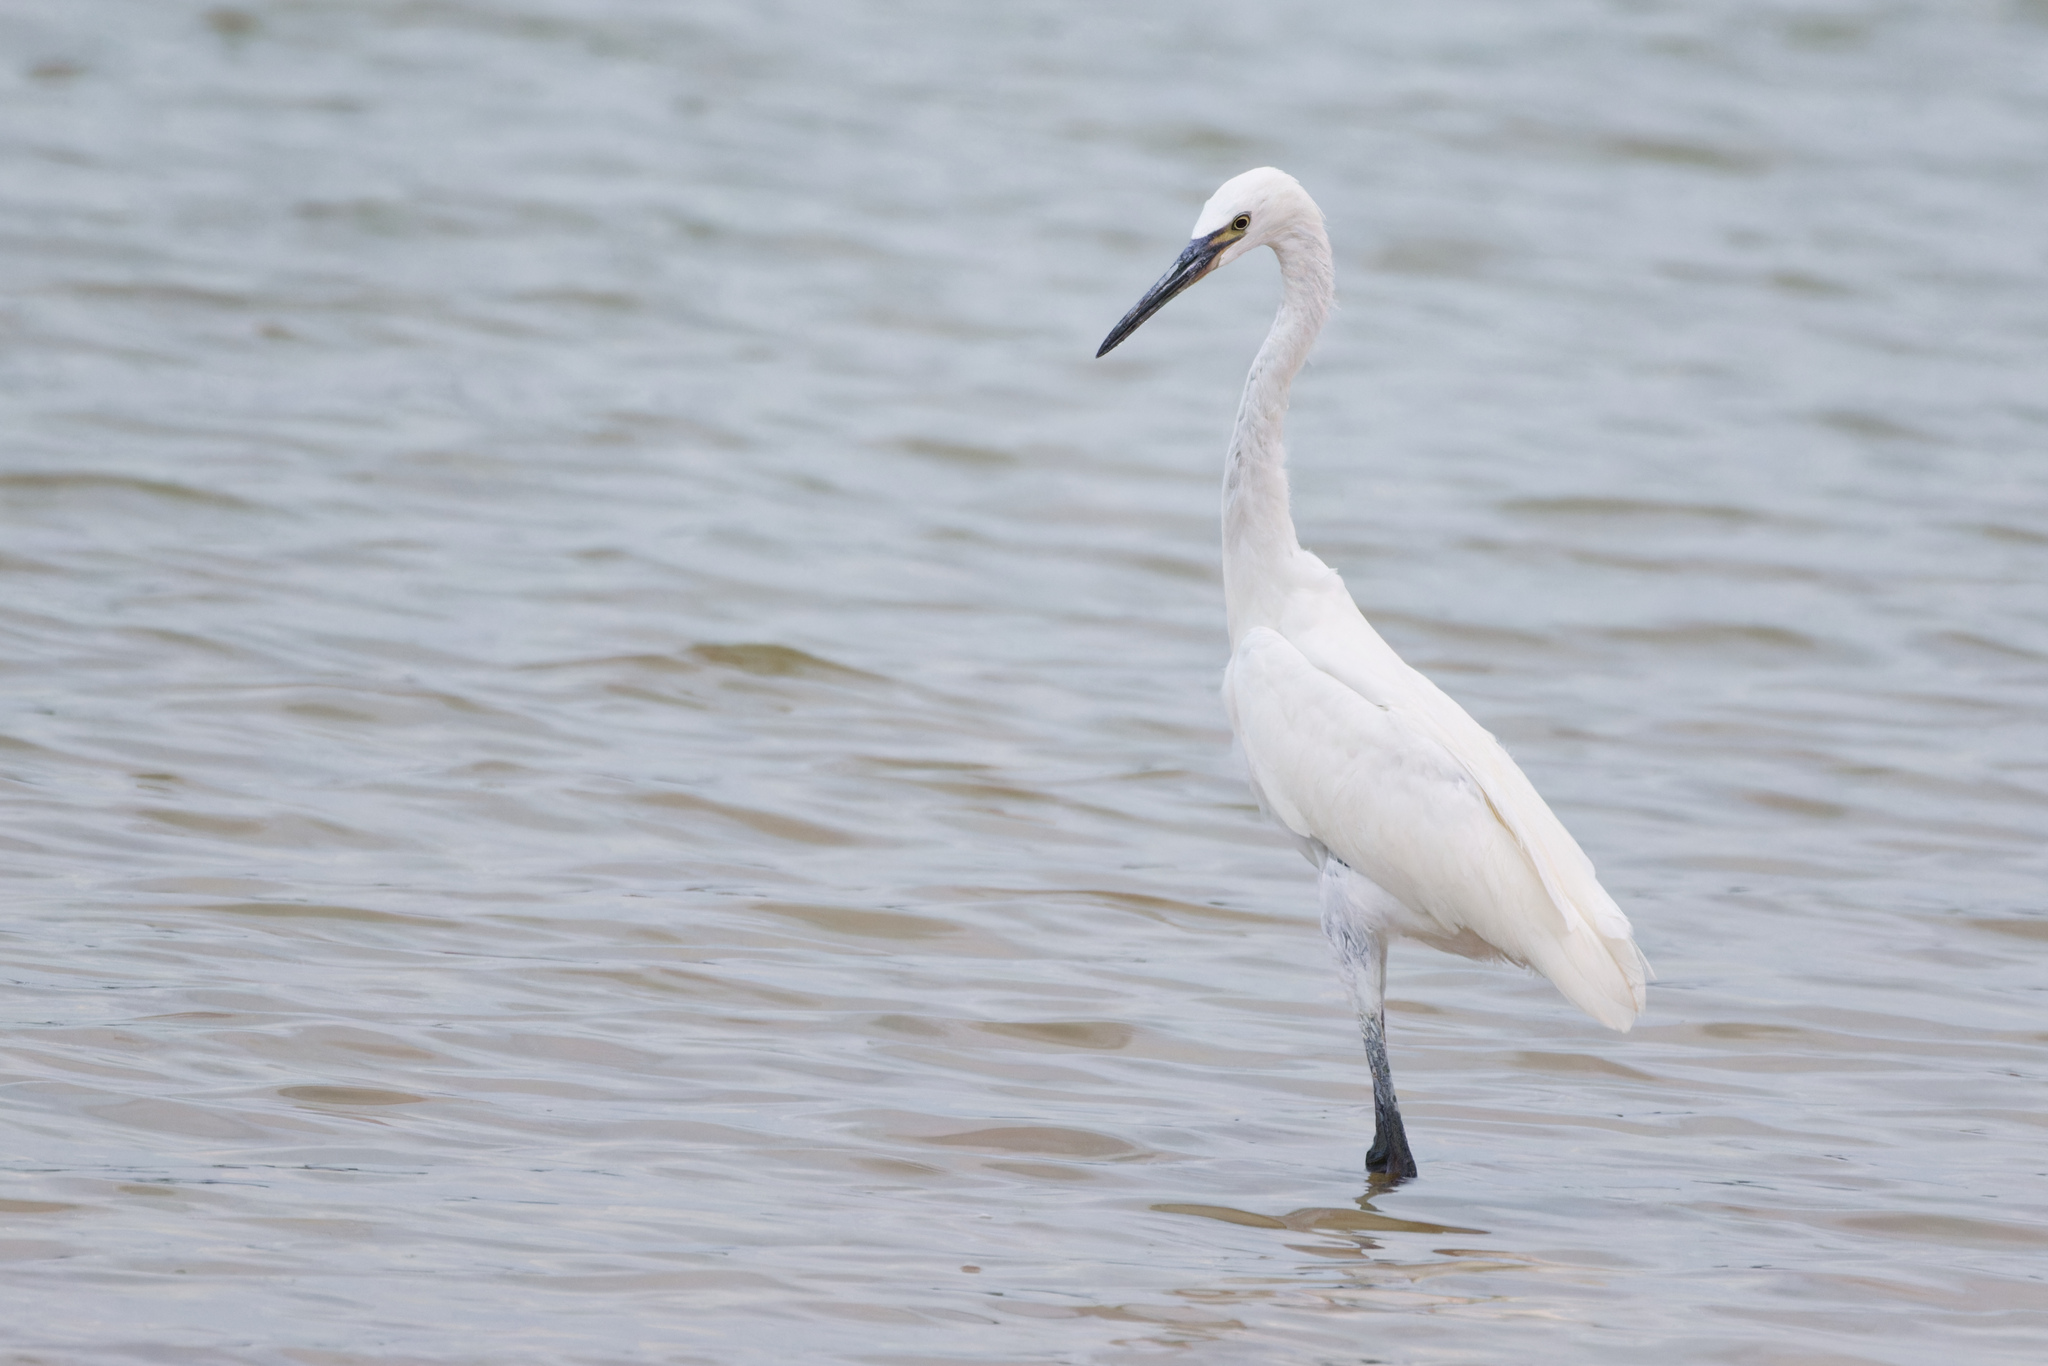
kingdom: Animalia
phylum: Chordata
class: Aves
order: Pelecaniformes
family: Ardeidae
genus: Egretta
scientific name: Egretta rufescens
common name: Reddish egret
